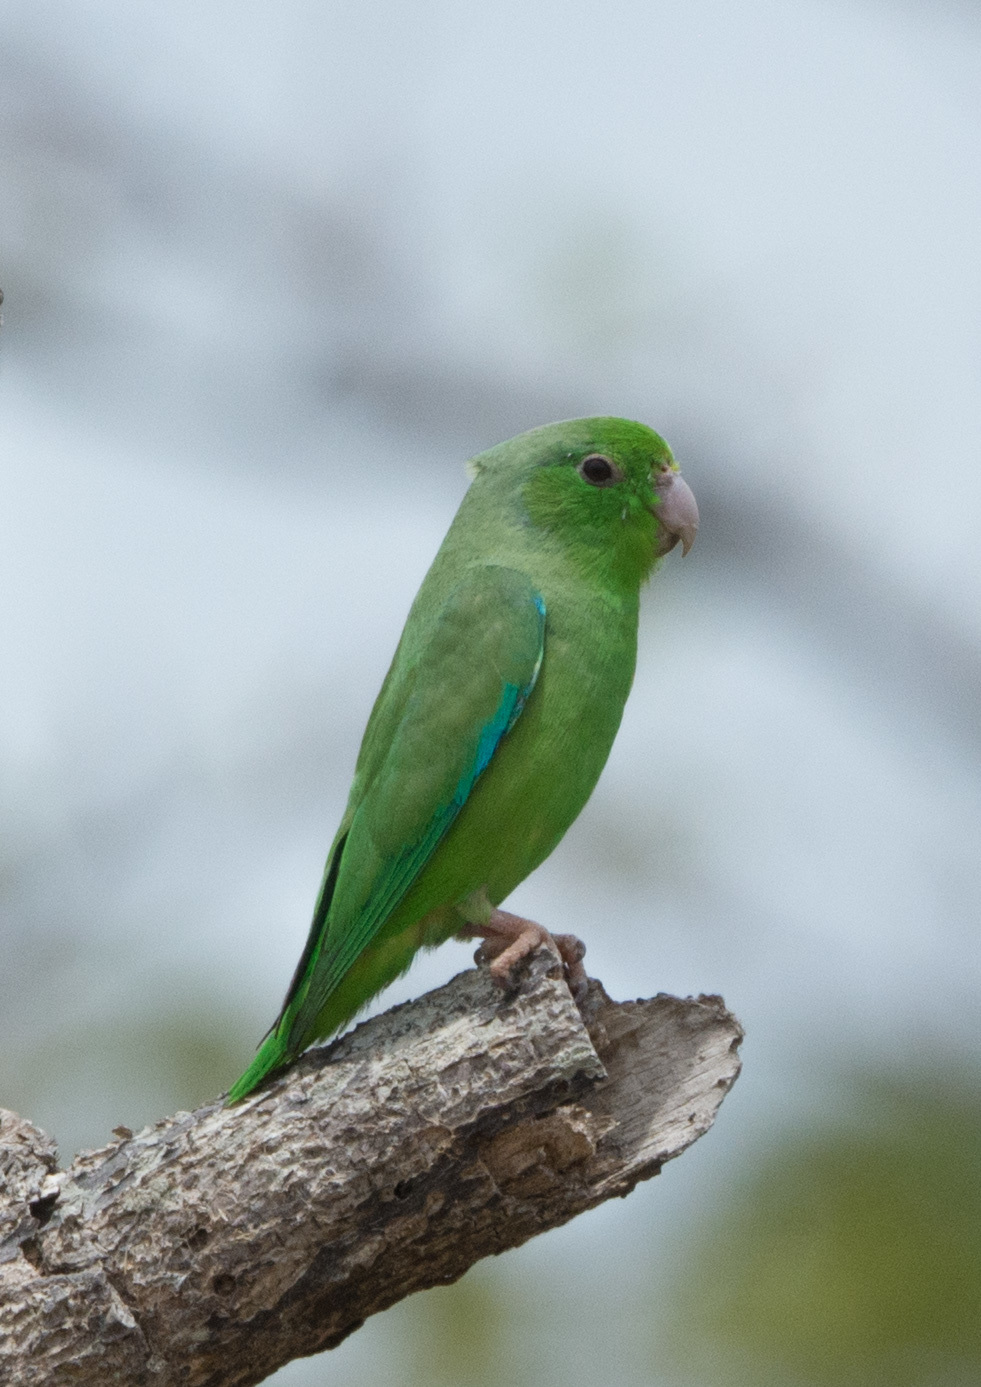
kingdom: Animalia
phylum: Chordata
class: Aves
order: Psittaciformes
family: Psittacidae
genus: Forpus
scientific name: Forpus passerinus
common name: Green-rumped parrotlet
